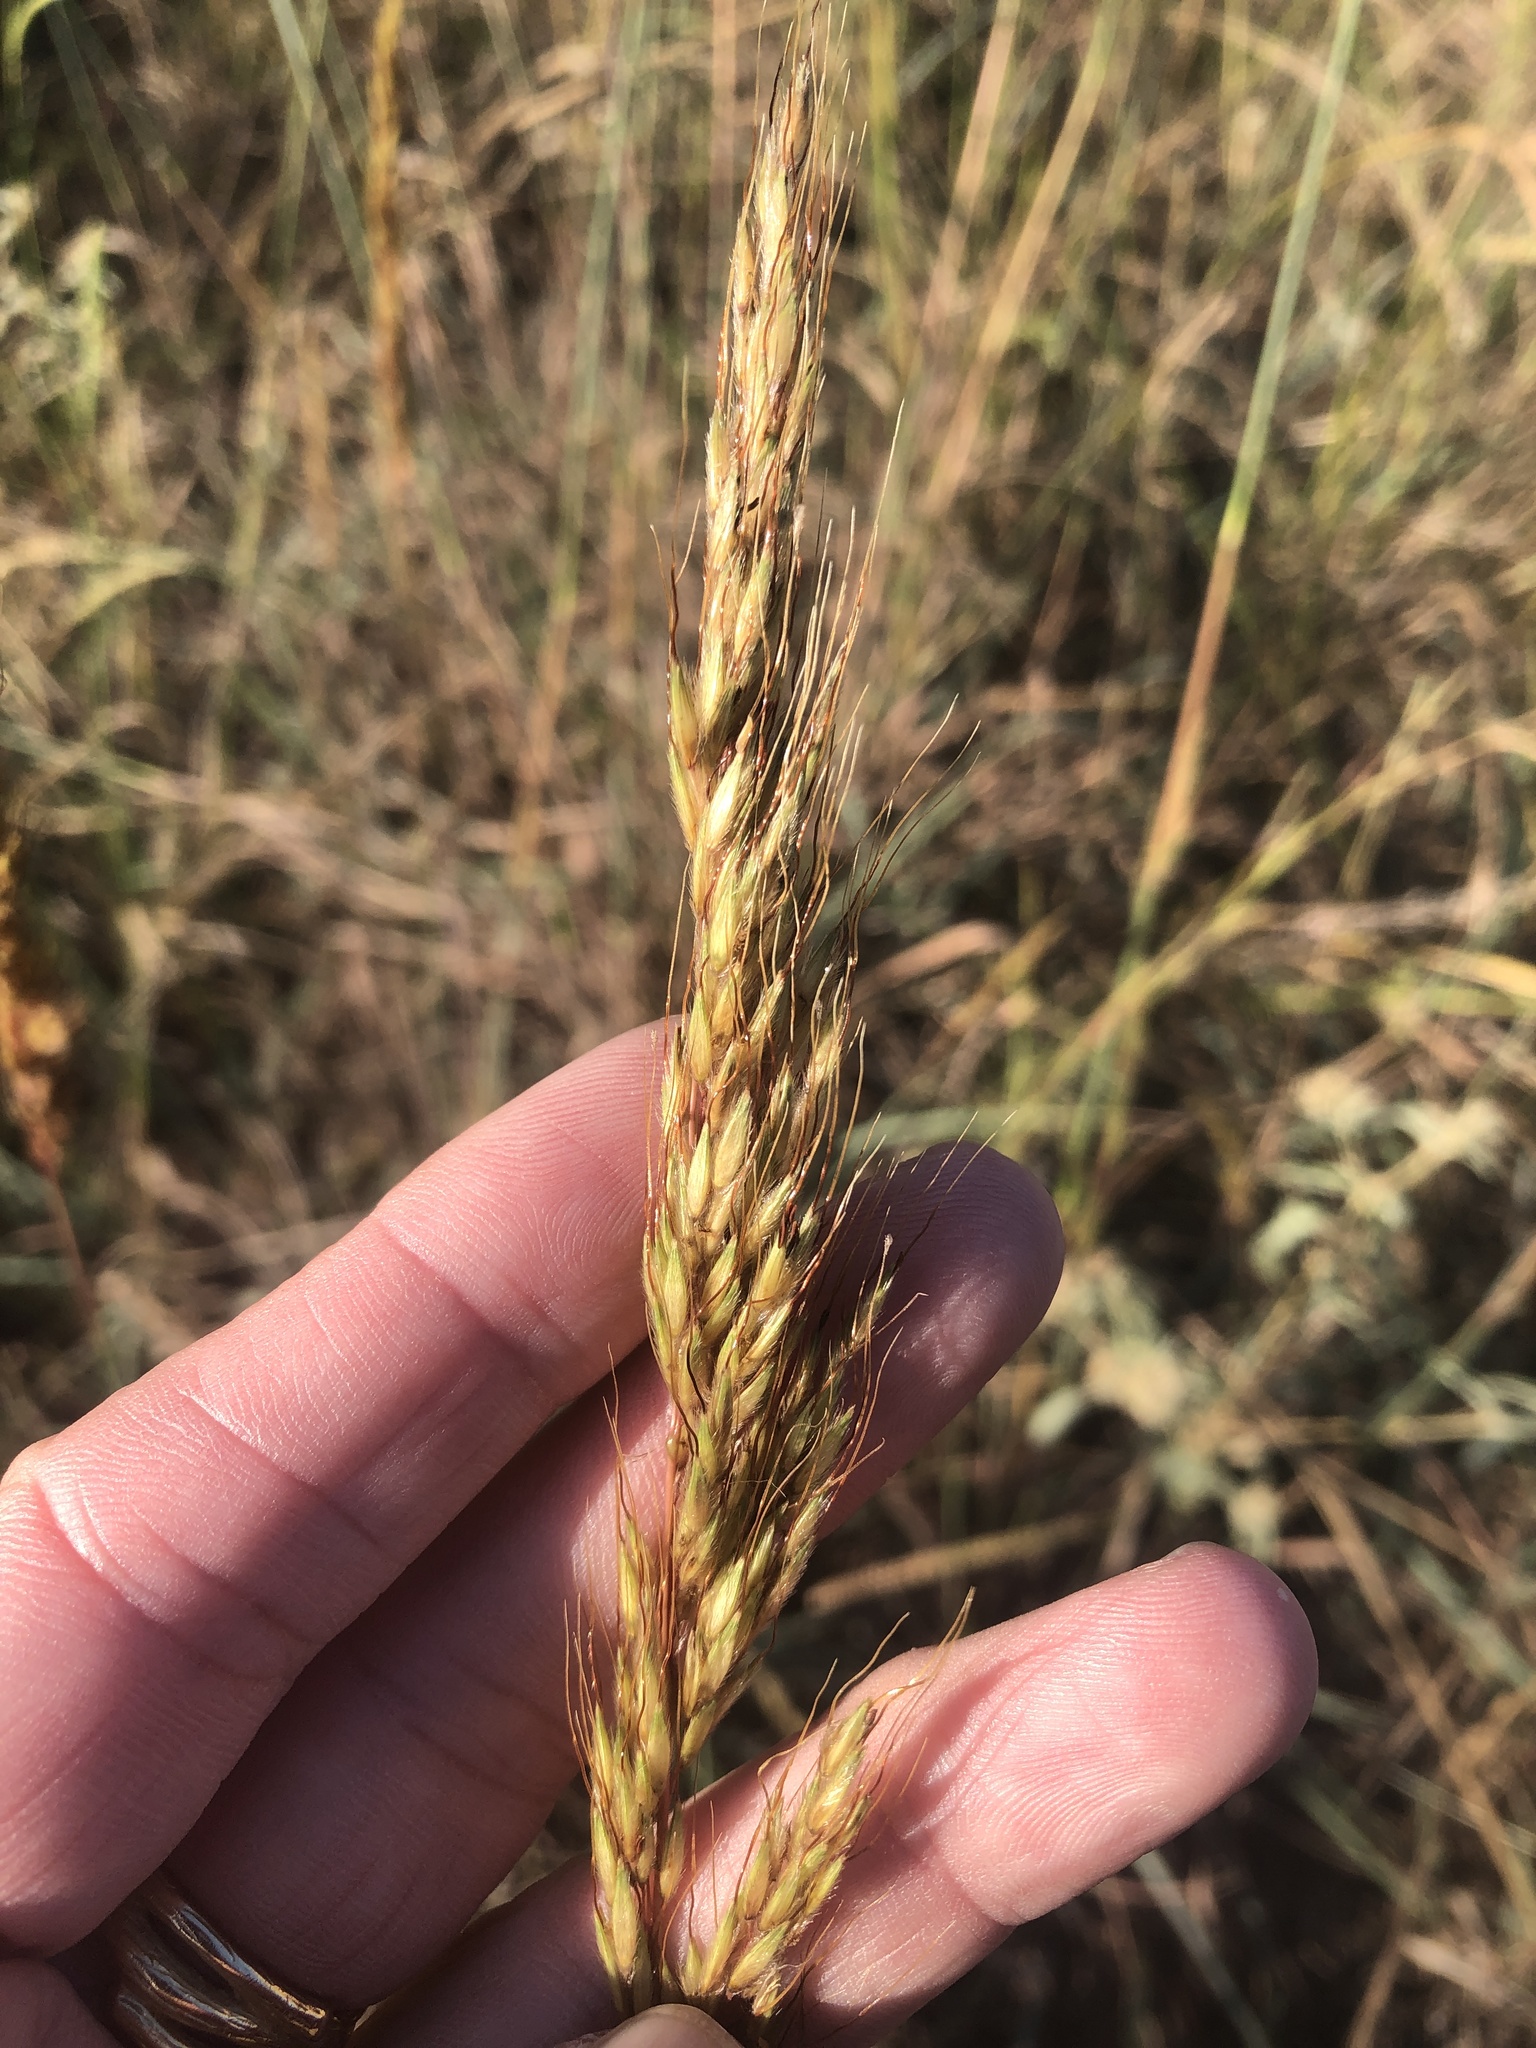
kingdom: Plantae
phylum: Tracheophyta
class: Liliopsida
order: Poales
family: Poaceae
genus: Sorghastrum
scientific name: Sorghastrum nutans
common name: Indian grass
